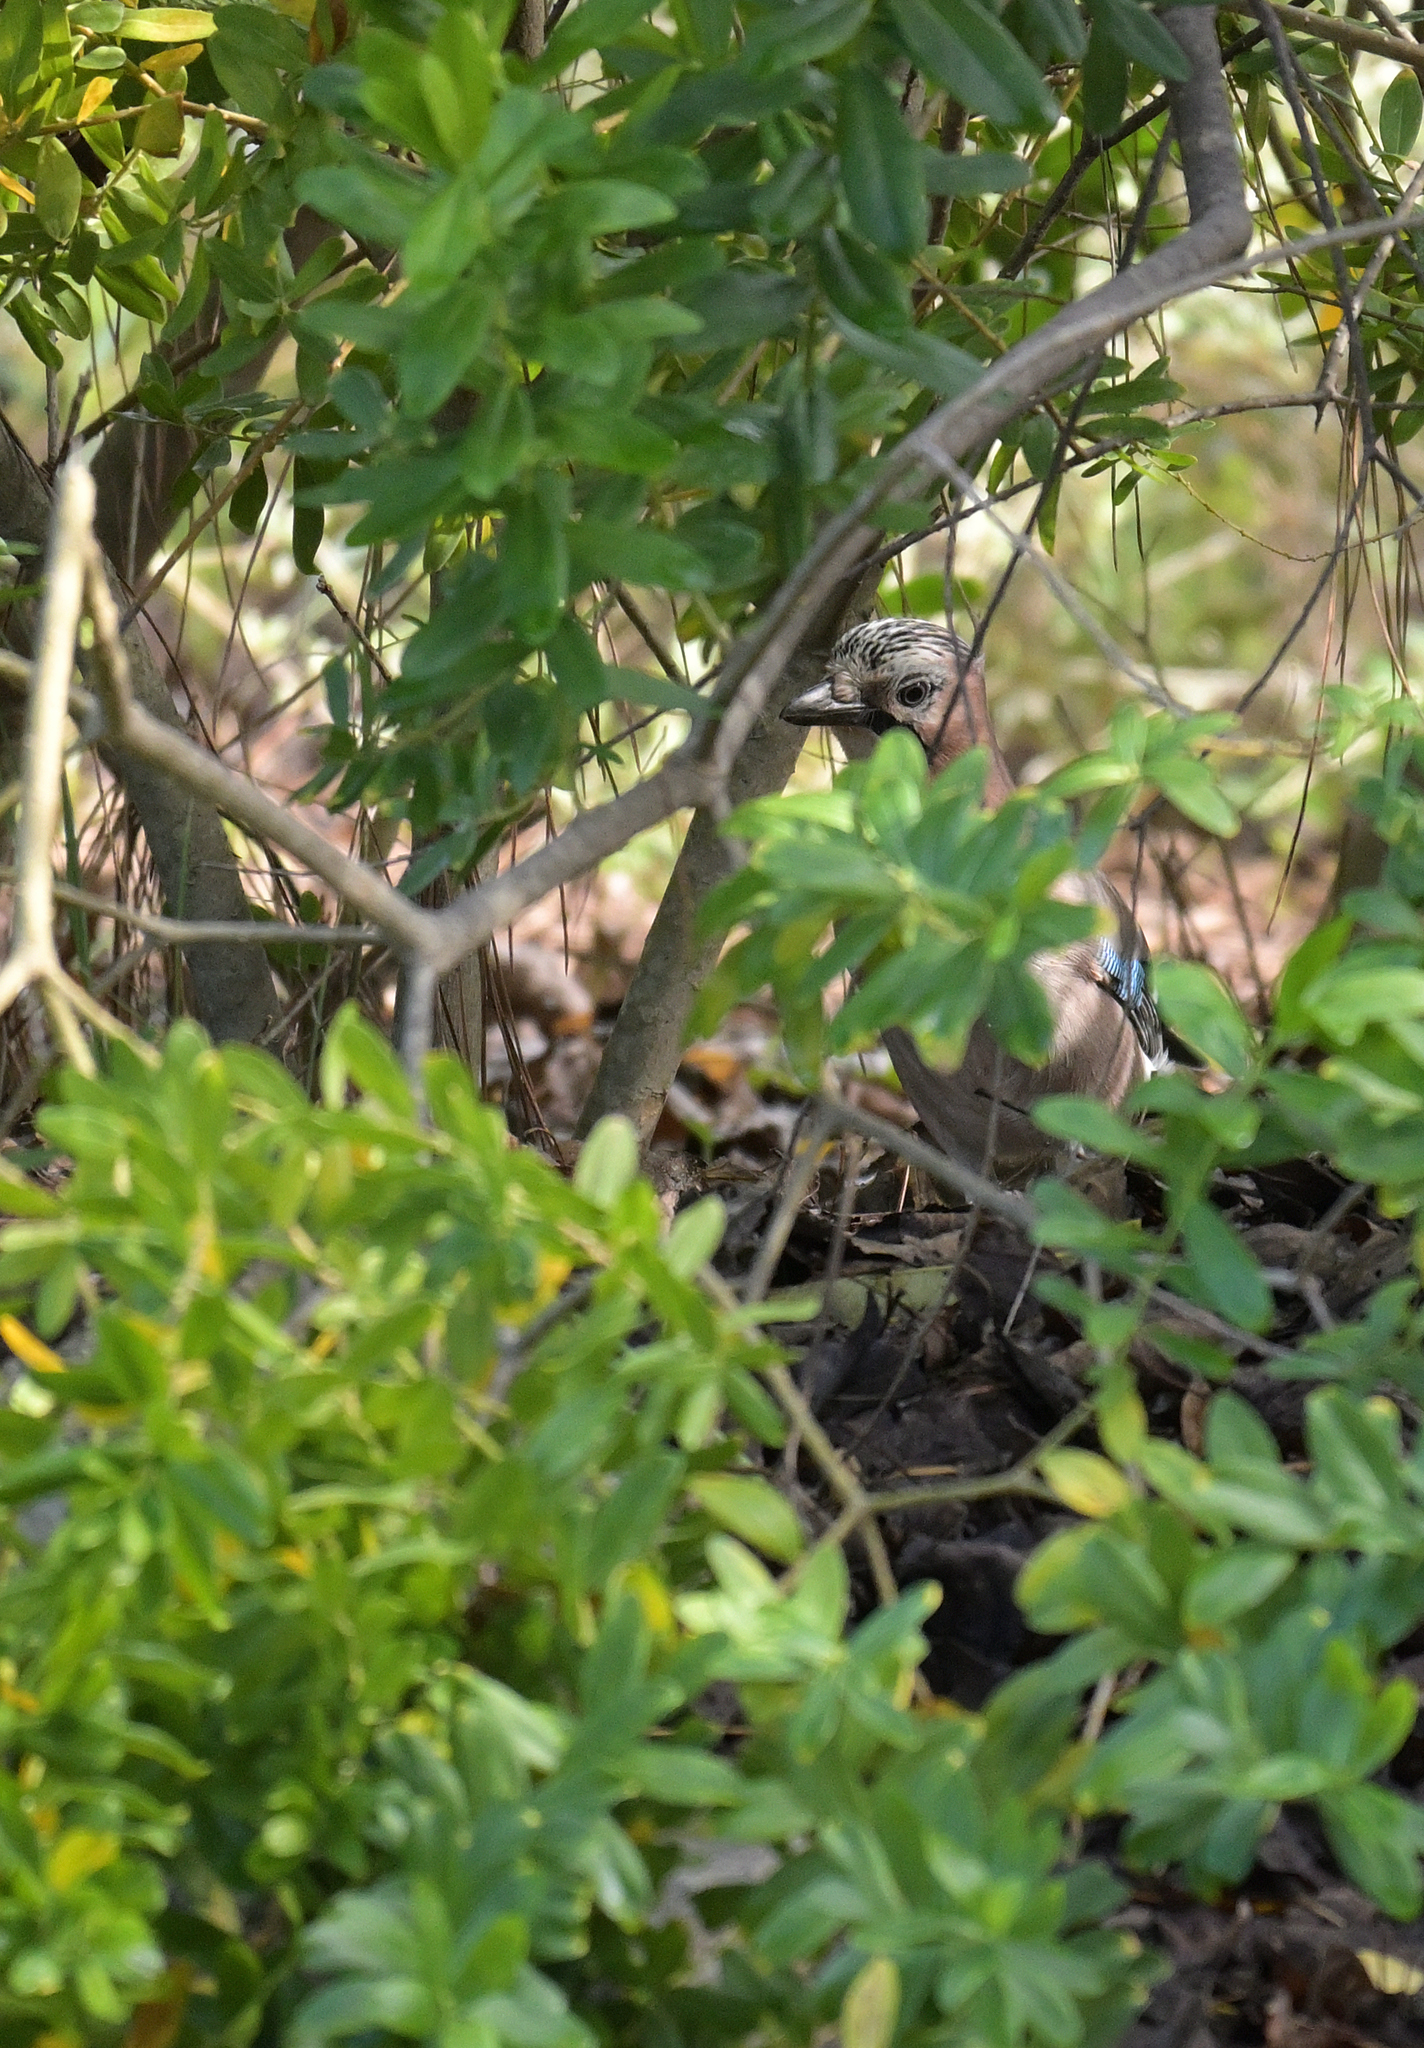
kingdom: Animalia
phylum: Chordata
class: Aves
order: Passeriformes
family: Corvidae
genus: Garrulus
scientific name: Garrulus glandarius
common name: Eurasian jay
